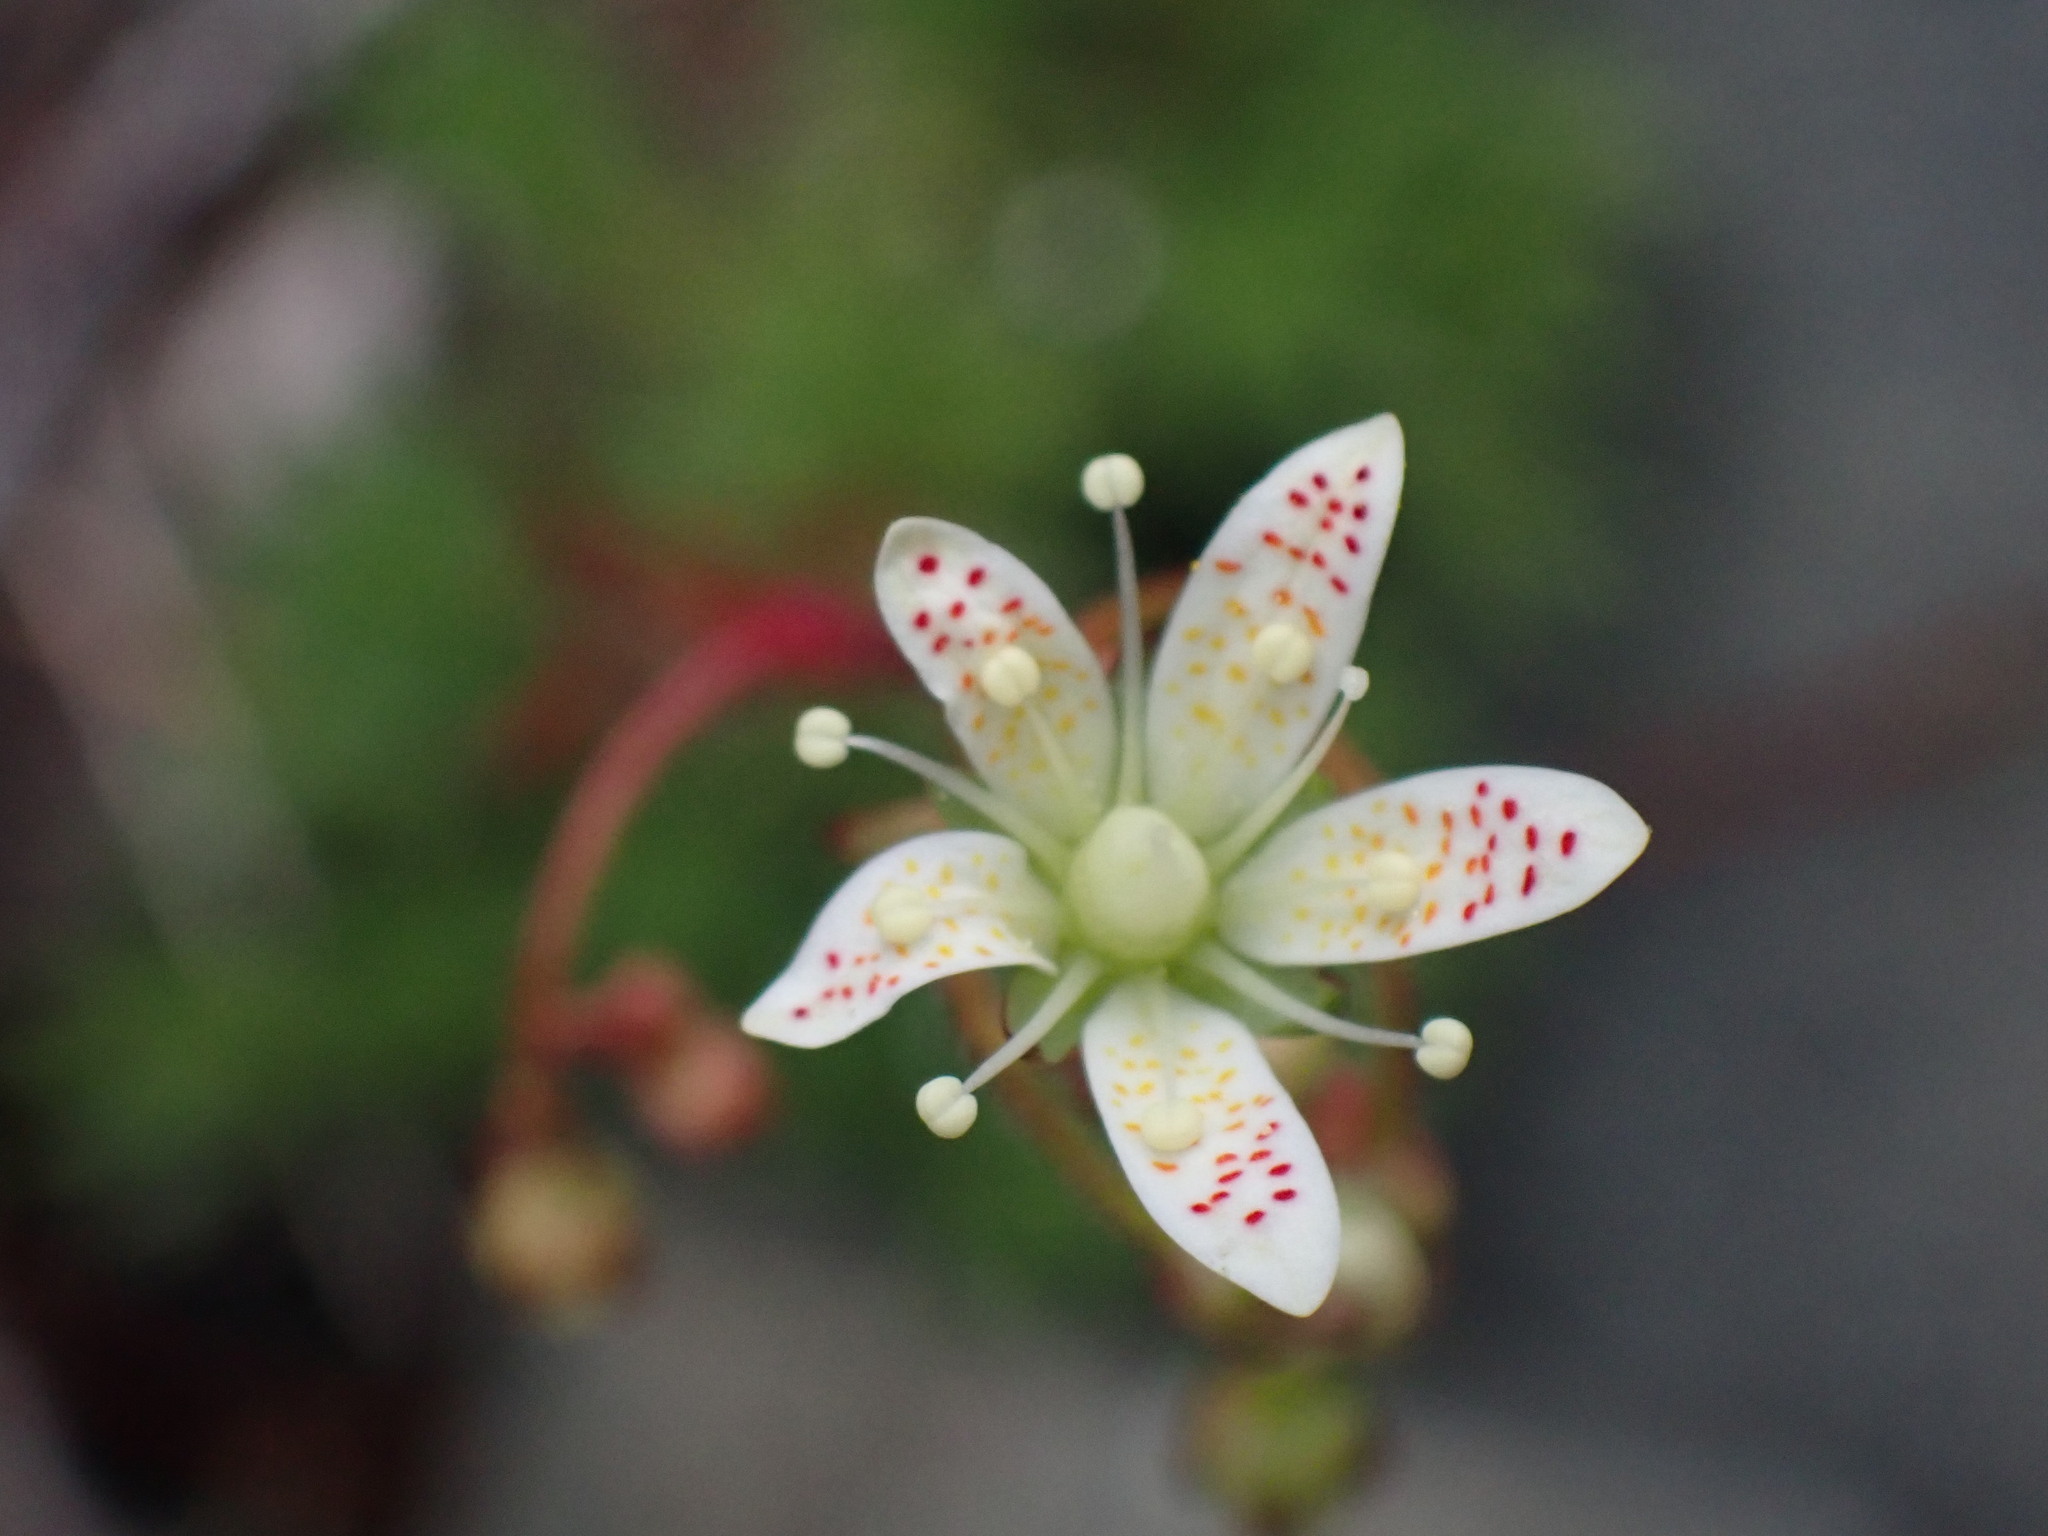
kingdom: Plantae
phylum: Tracheophyta
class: Magnoliopsida
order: Saxifragales
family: Saxifragaceae
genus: Saxifraga
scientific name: Saxifraga bronchialis
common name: Matted saxifrage
